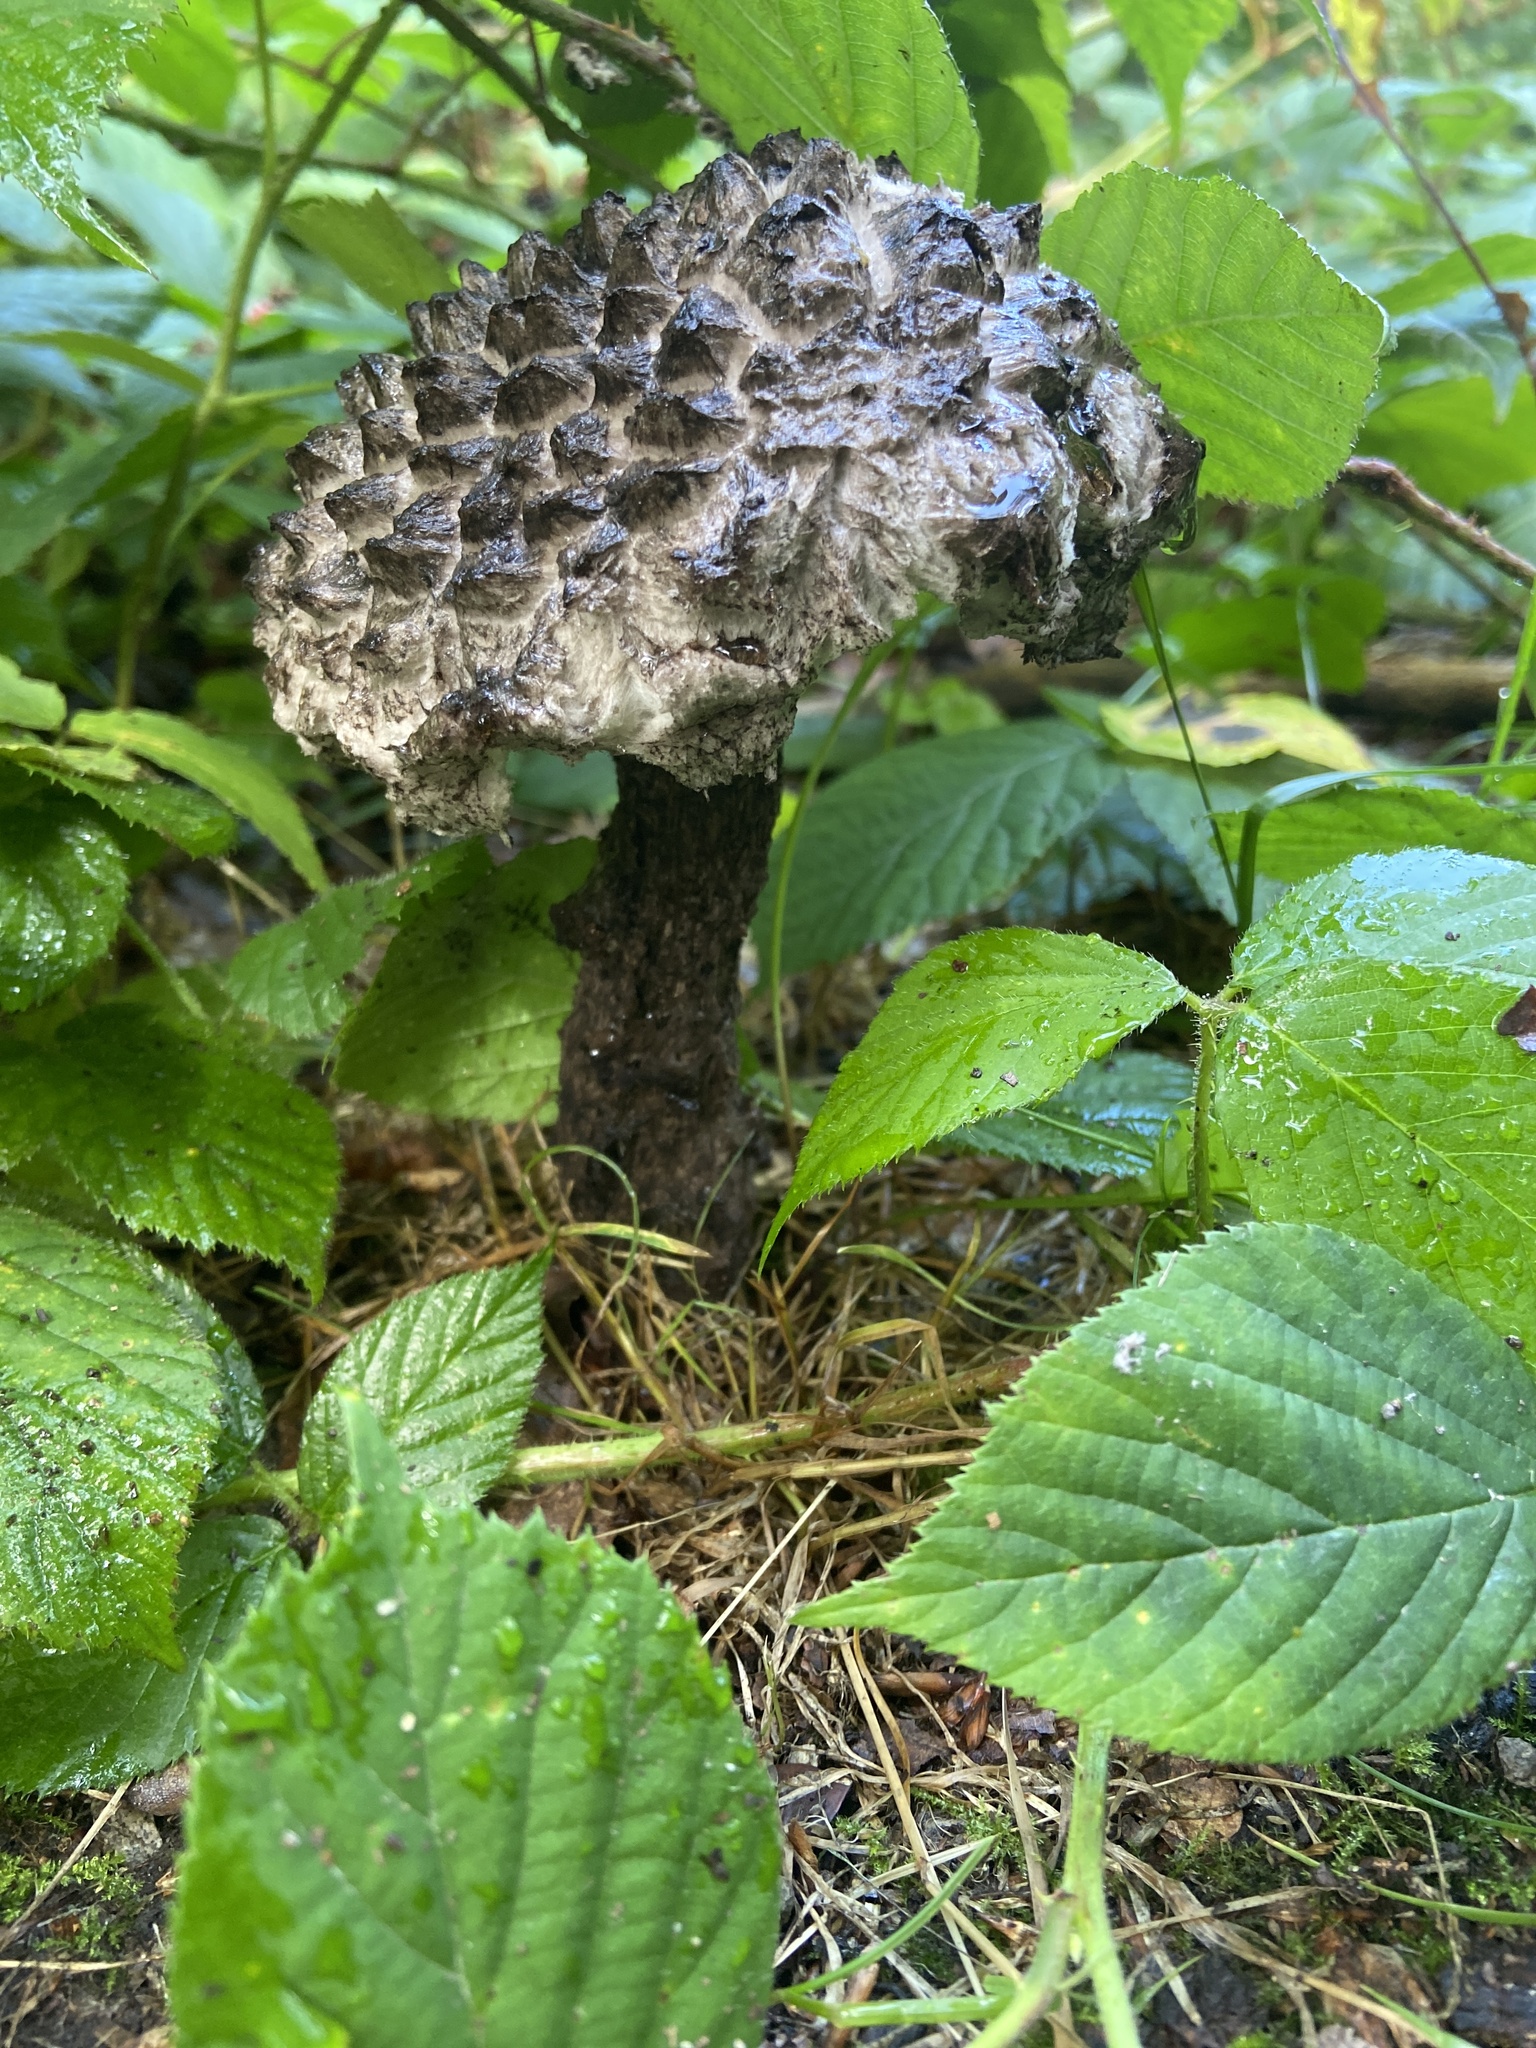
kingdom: Fungi
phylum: Basidiomycota
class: Agaricomycetes
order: Boletales
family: Boletaceae
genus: Strobilomyces
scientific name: Strobilomyces strobilaceus
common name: Old man of the woods
